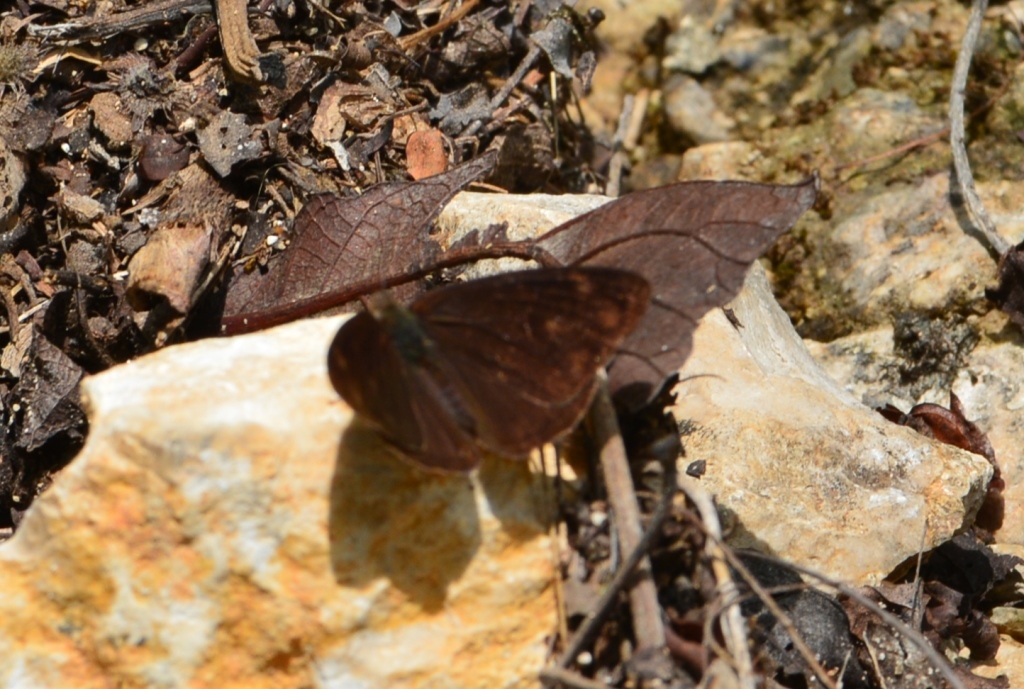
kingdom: Animalia
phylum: Arthropoda
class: Insecta
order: Lepidoptera
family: Nymphalidae
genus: Eunica
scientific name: Eunica monima
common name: Dingy purplewing
